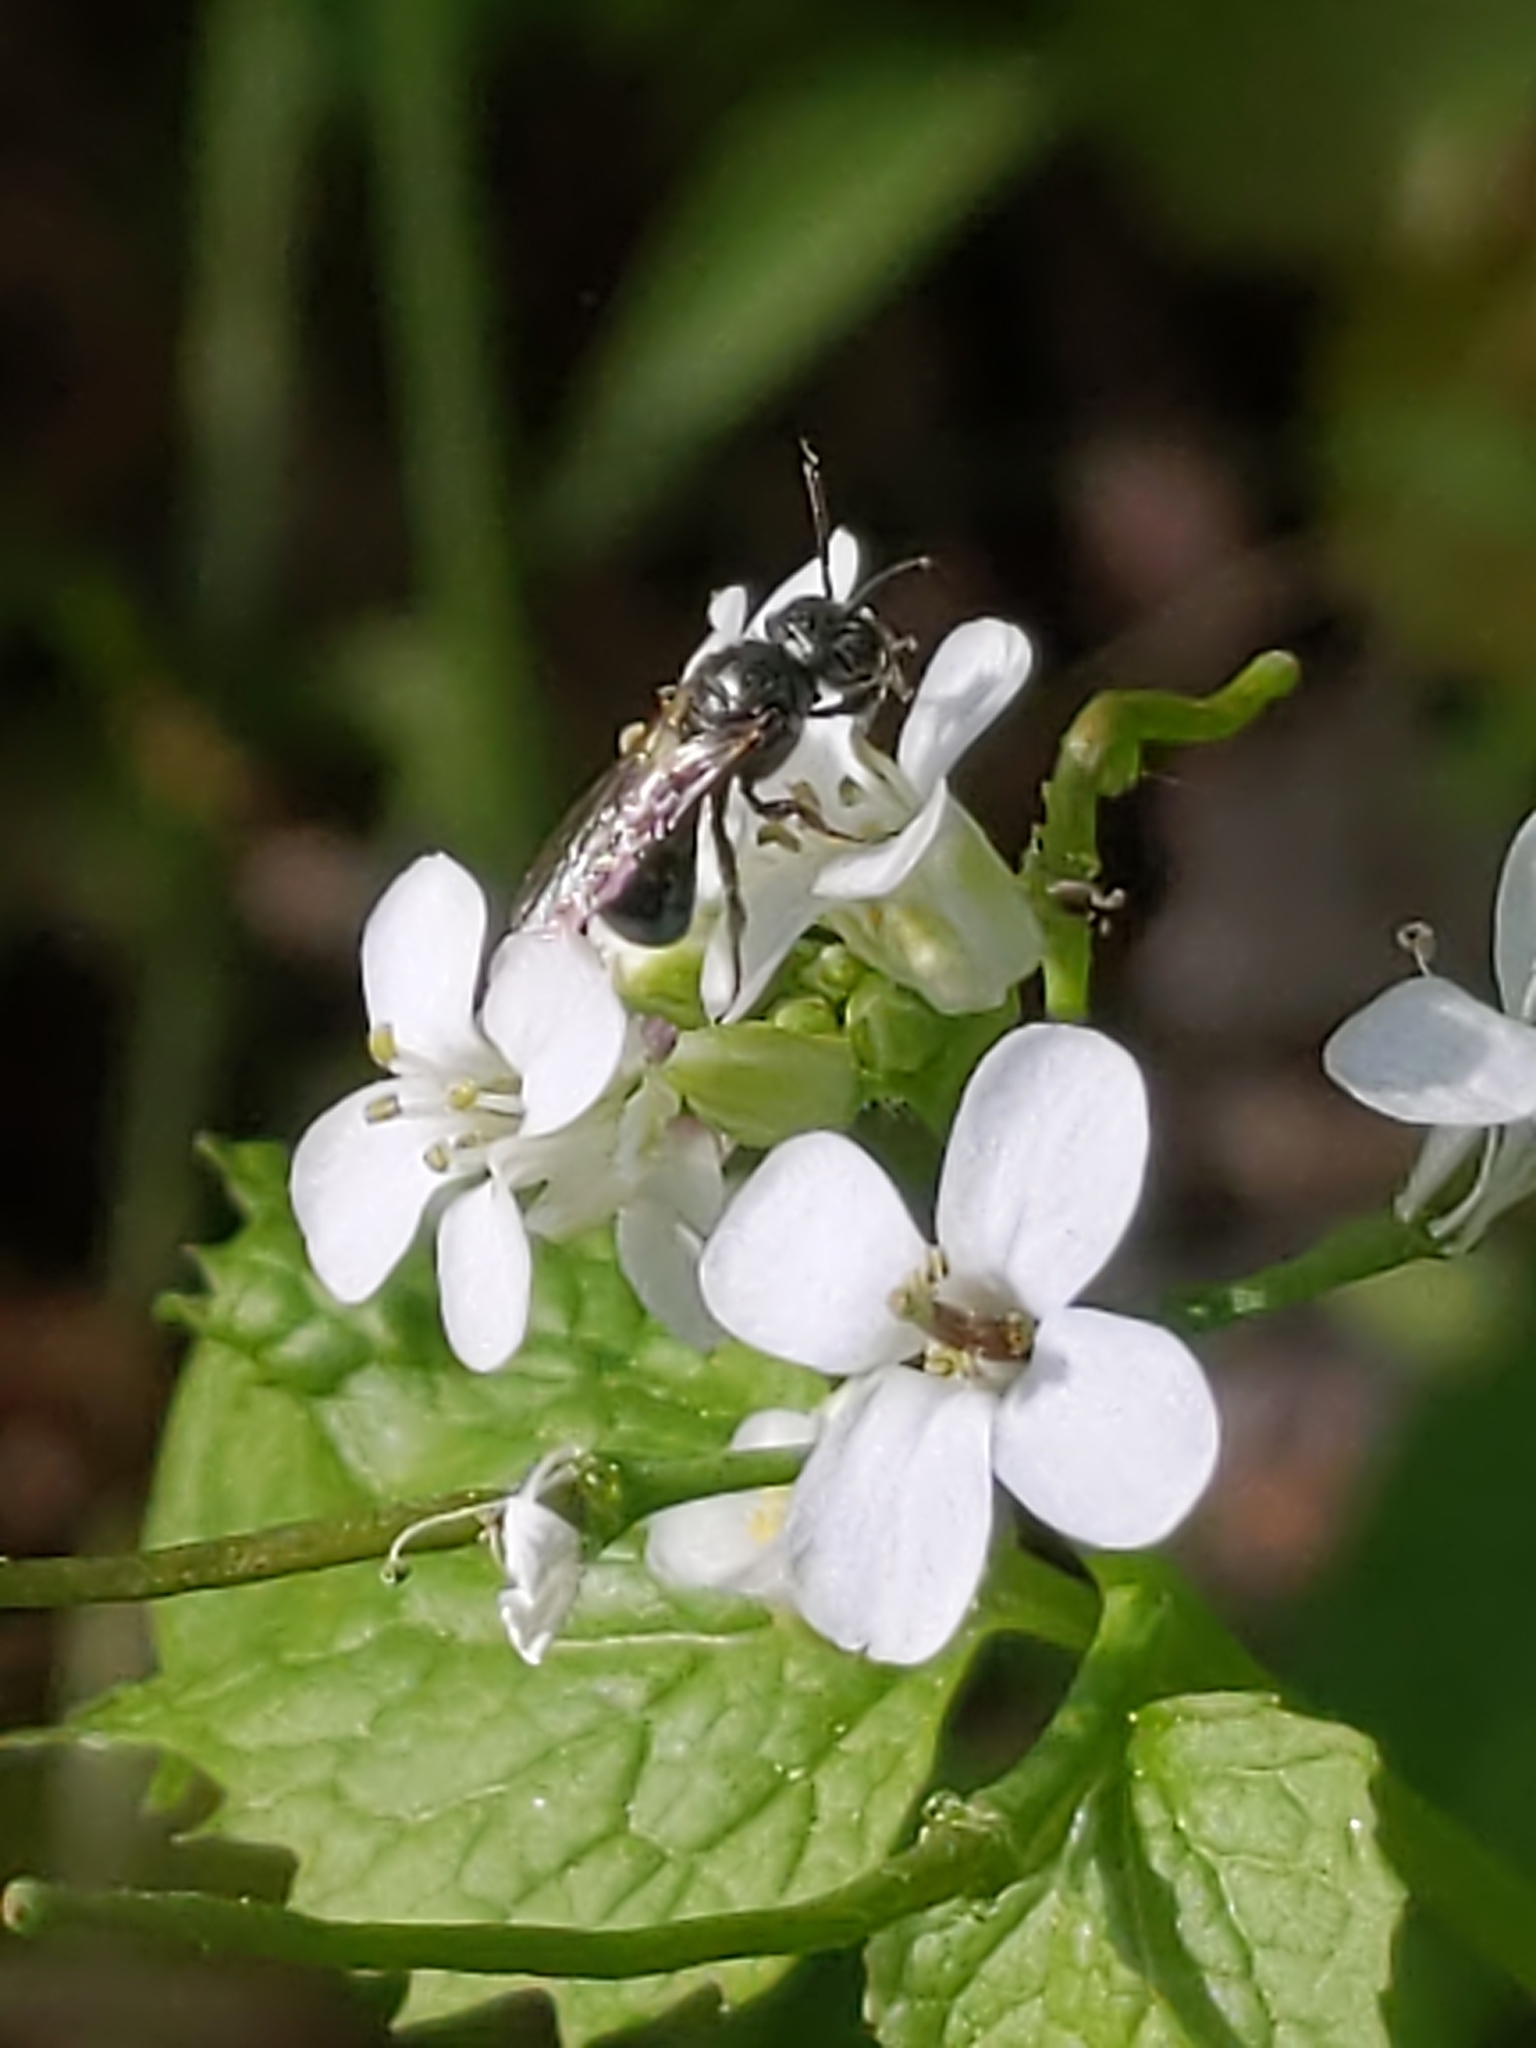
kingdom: Animalia
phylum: Arthropoda
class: Insecta
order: Hymenoptera
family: Apidae
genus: Zadontomerus
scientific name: Zadontomerus
